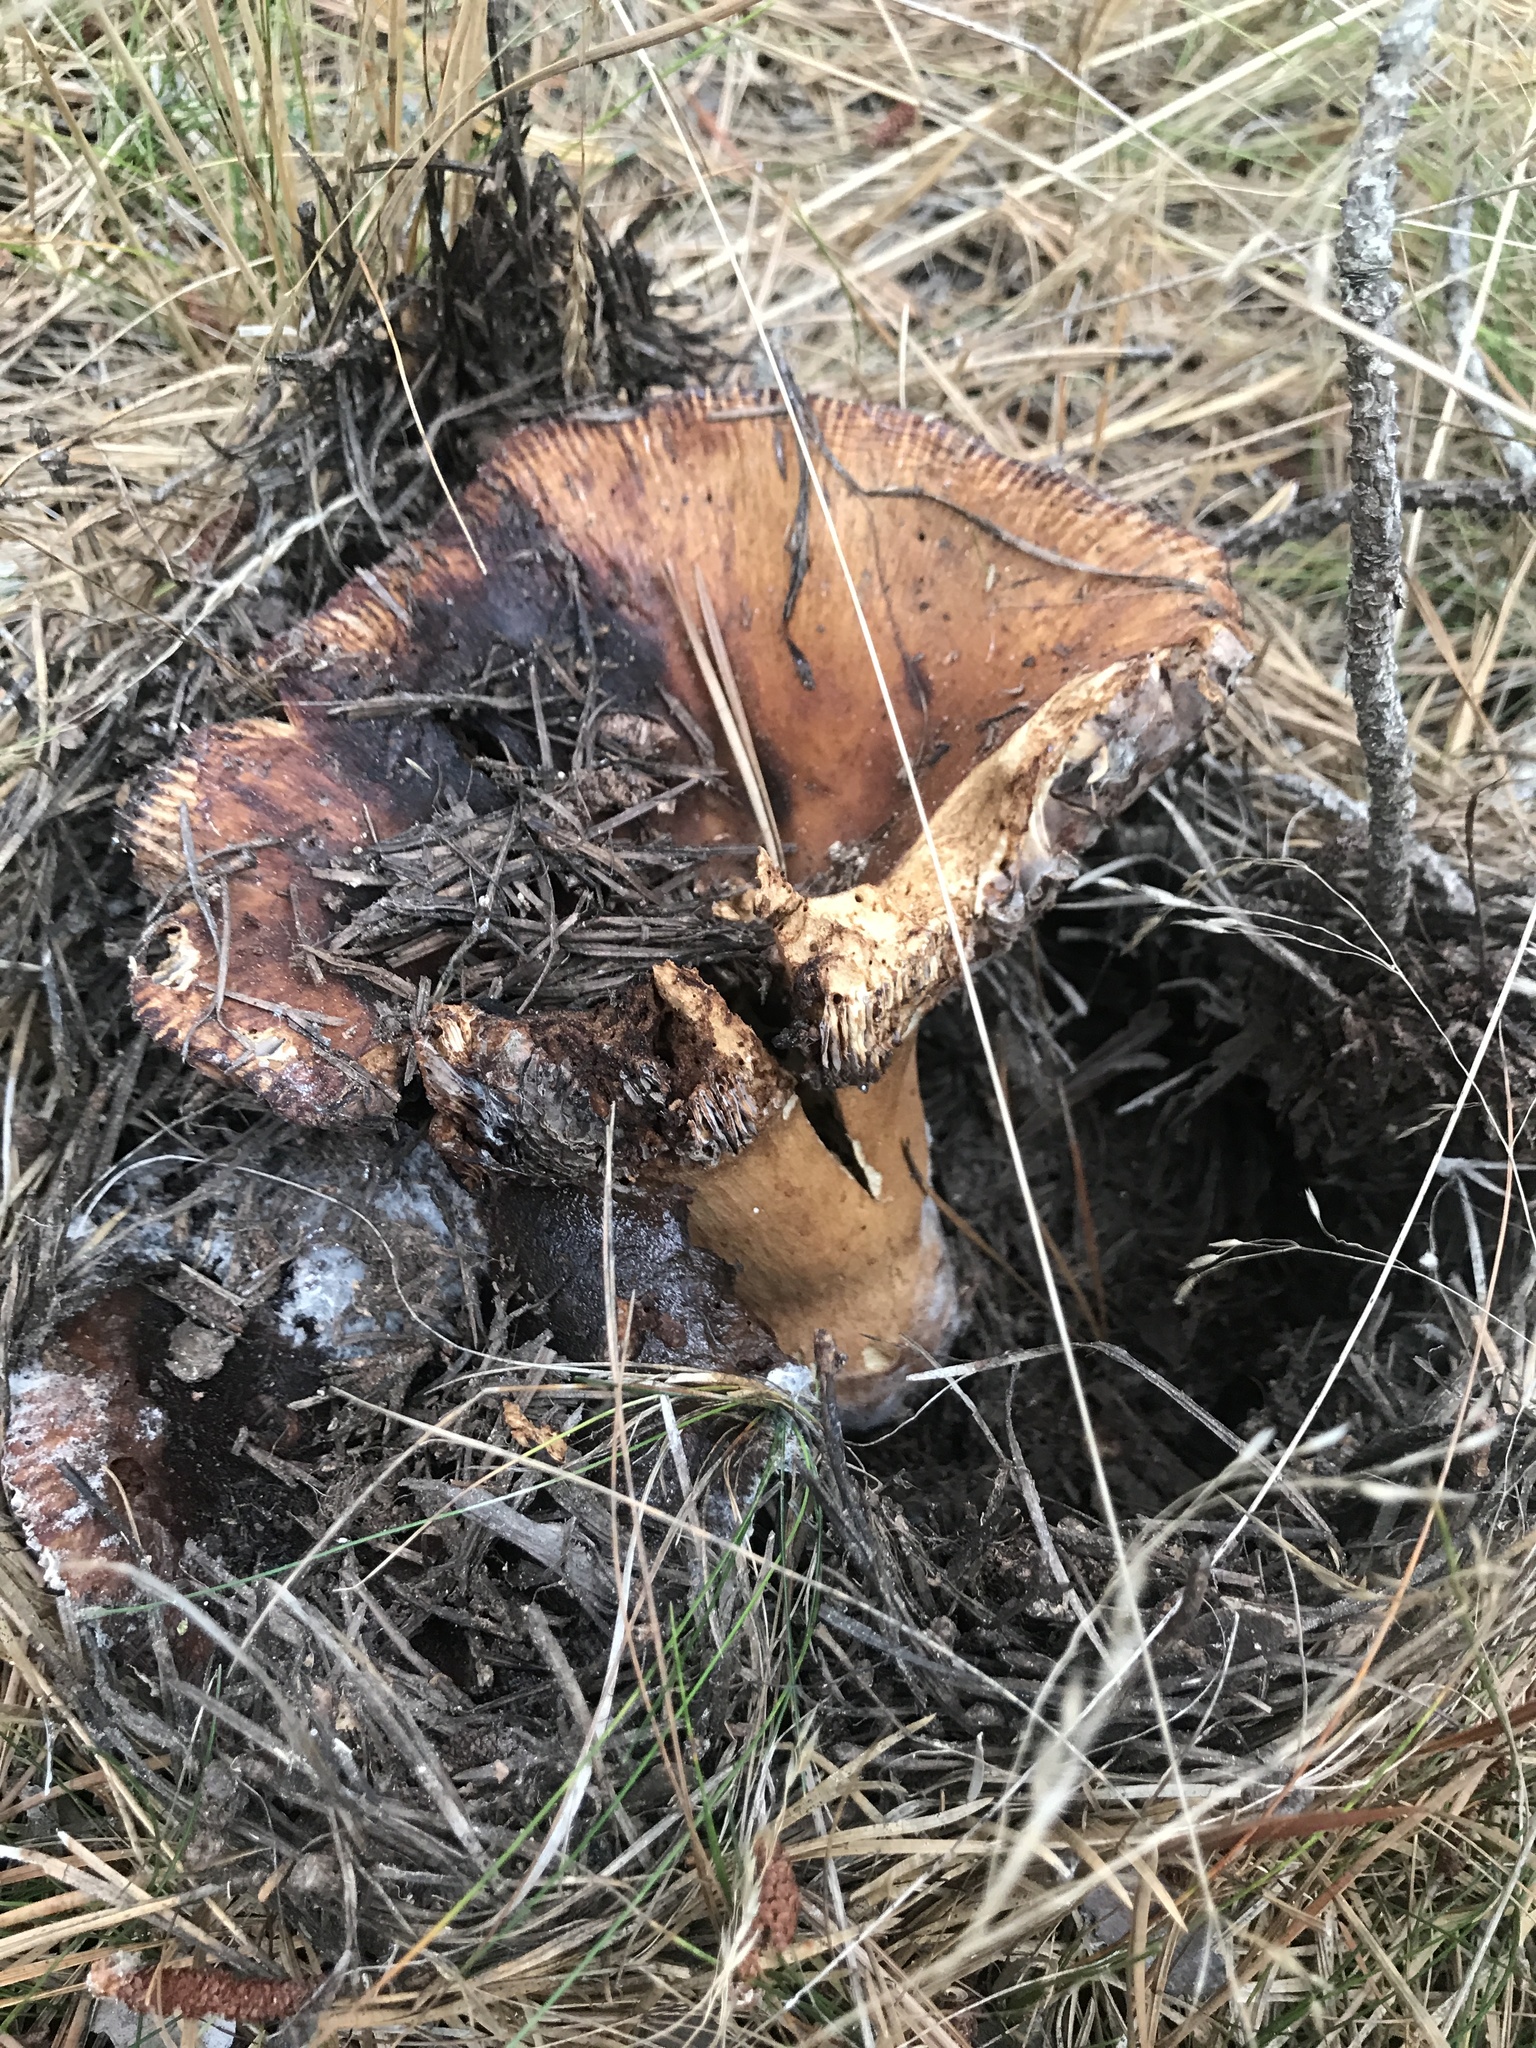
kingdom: Fungi
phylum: Basidiomycota
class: Agaricomycetes
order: Russulales
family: Russulaceae
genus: Russula
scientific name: Russula mutabilis
